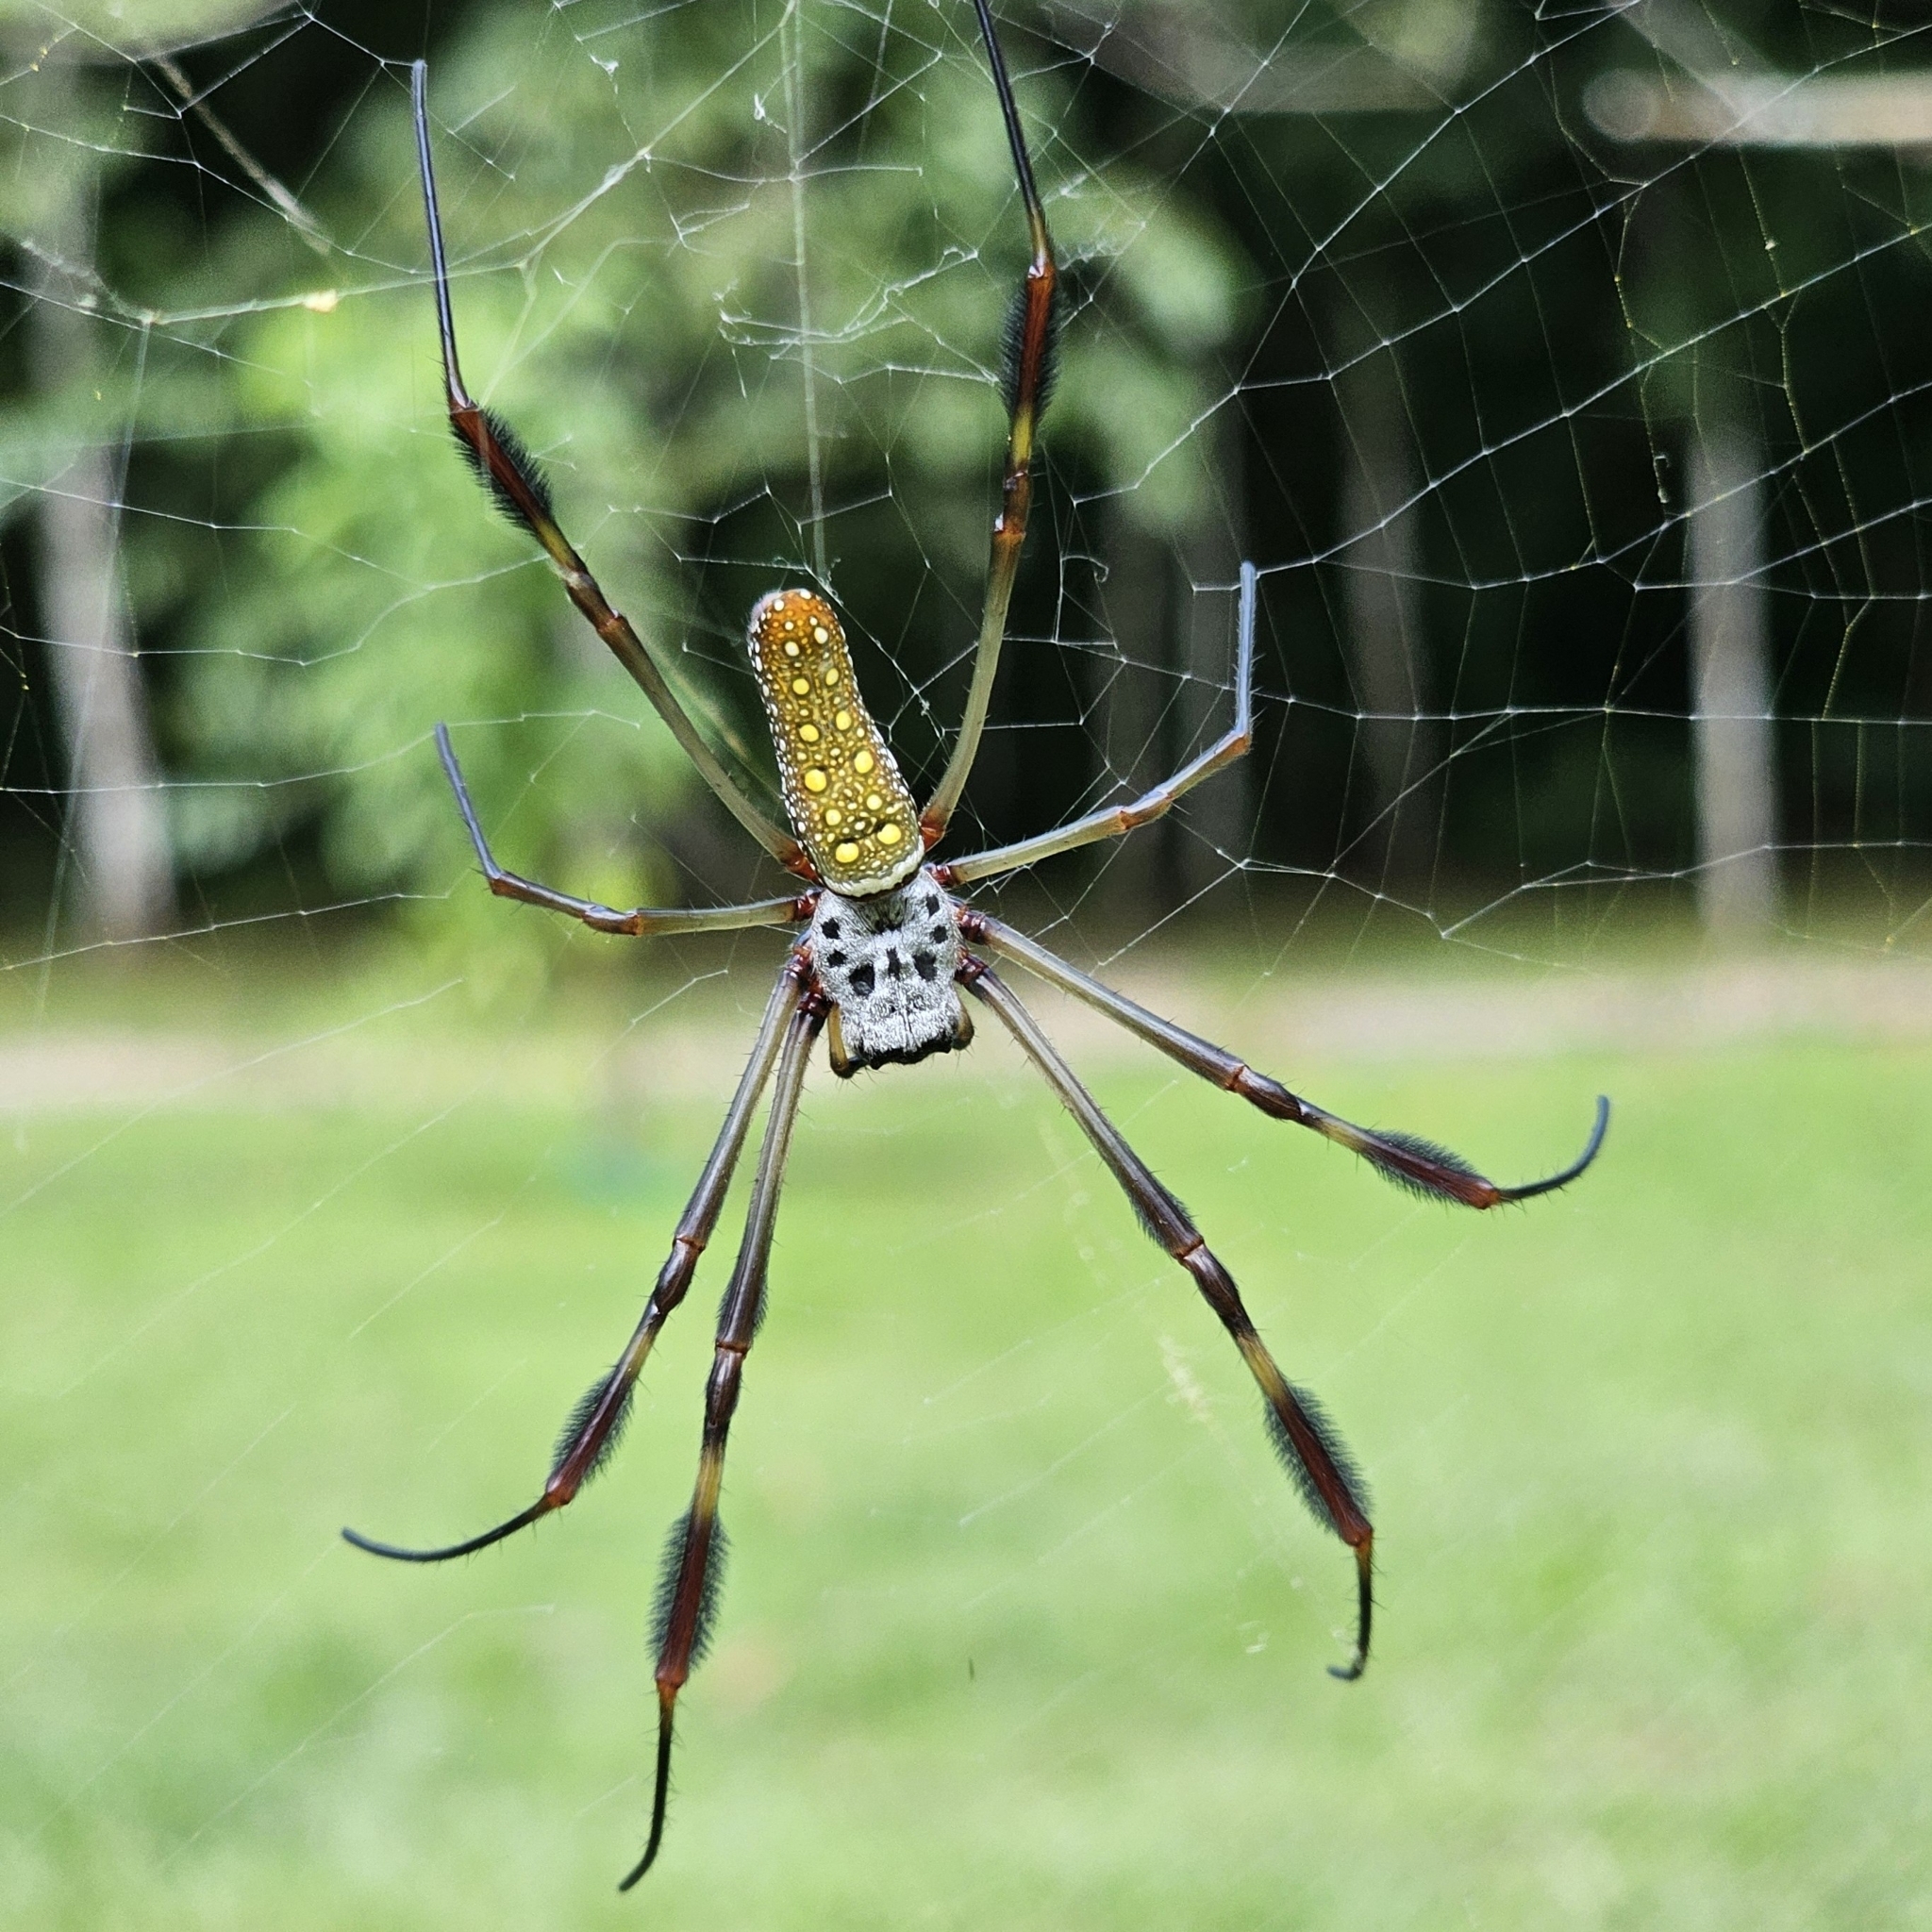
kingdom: Animalia
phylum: Arthropoda
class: Arachnida
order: Araneae
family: Araneidae
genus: Trichonephila
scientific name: Trichonephila clavipes
